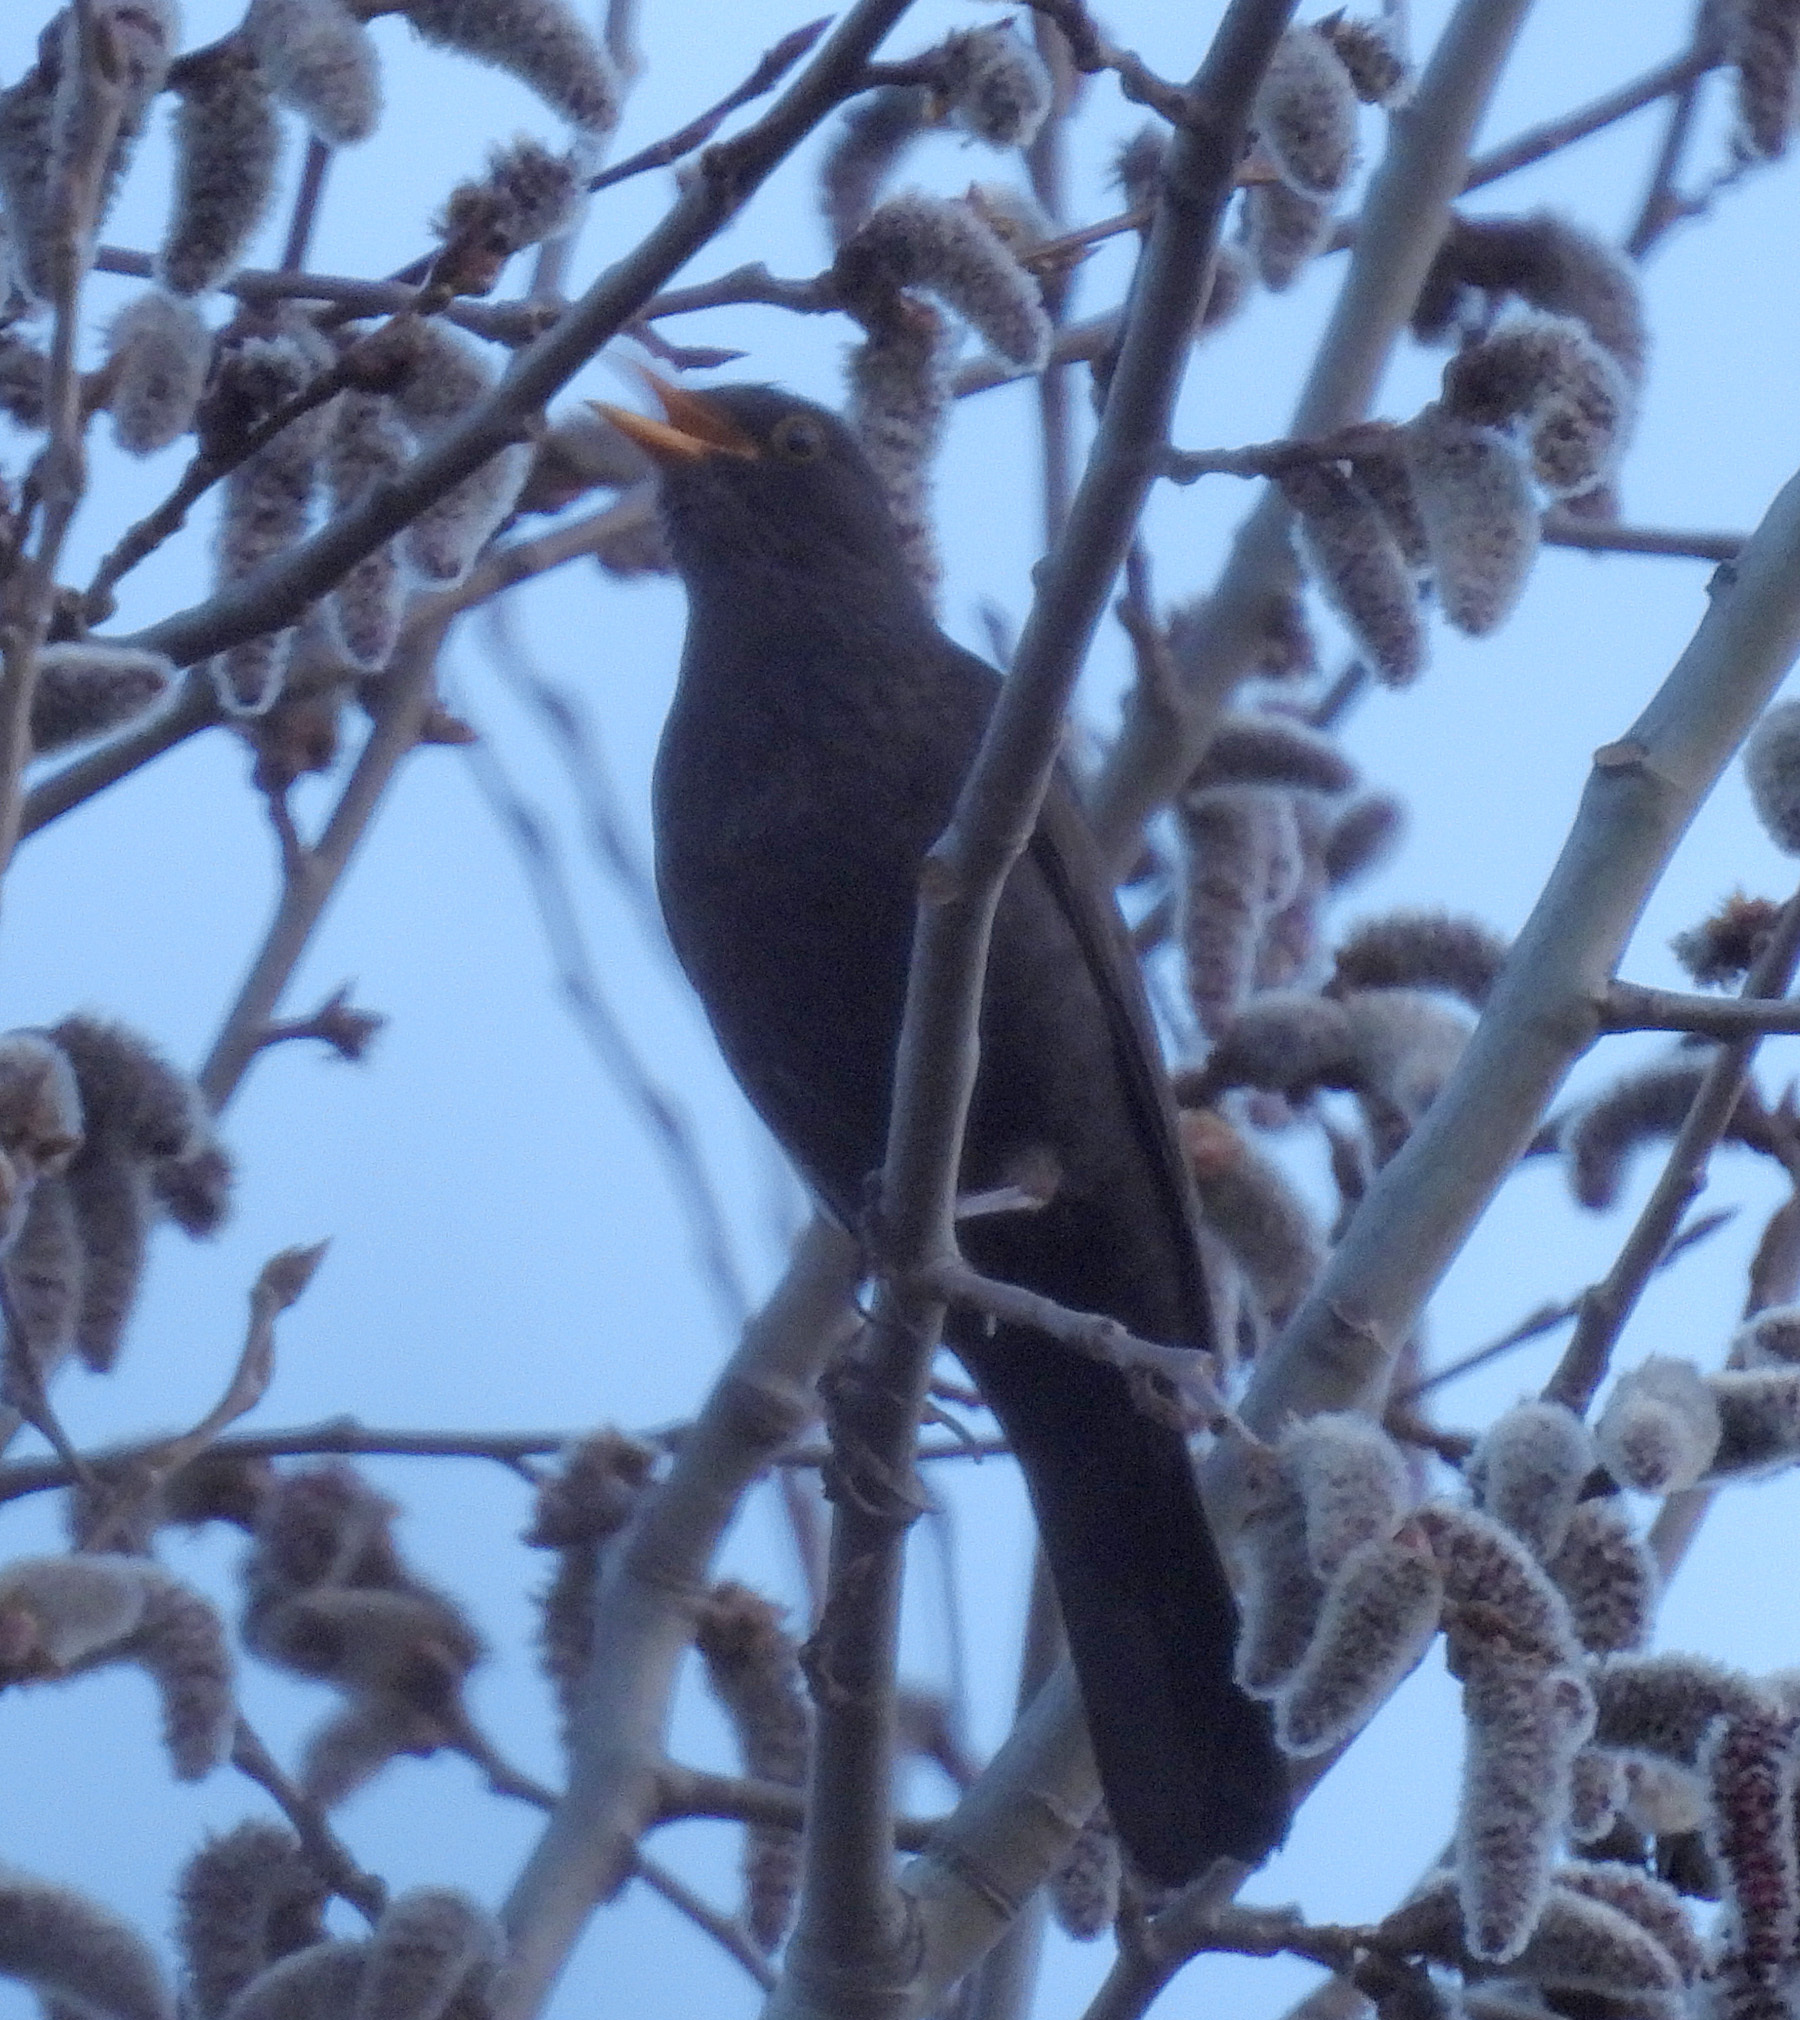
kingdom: Animalia
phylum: Chordata
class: Aves
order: Passeriformes
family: Turdidae
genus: Turdus
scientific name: Turdus merula
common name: Common blackbird
